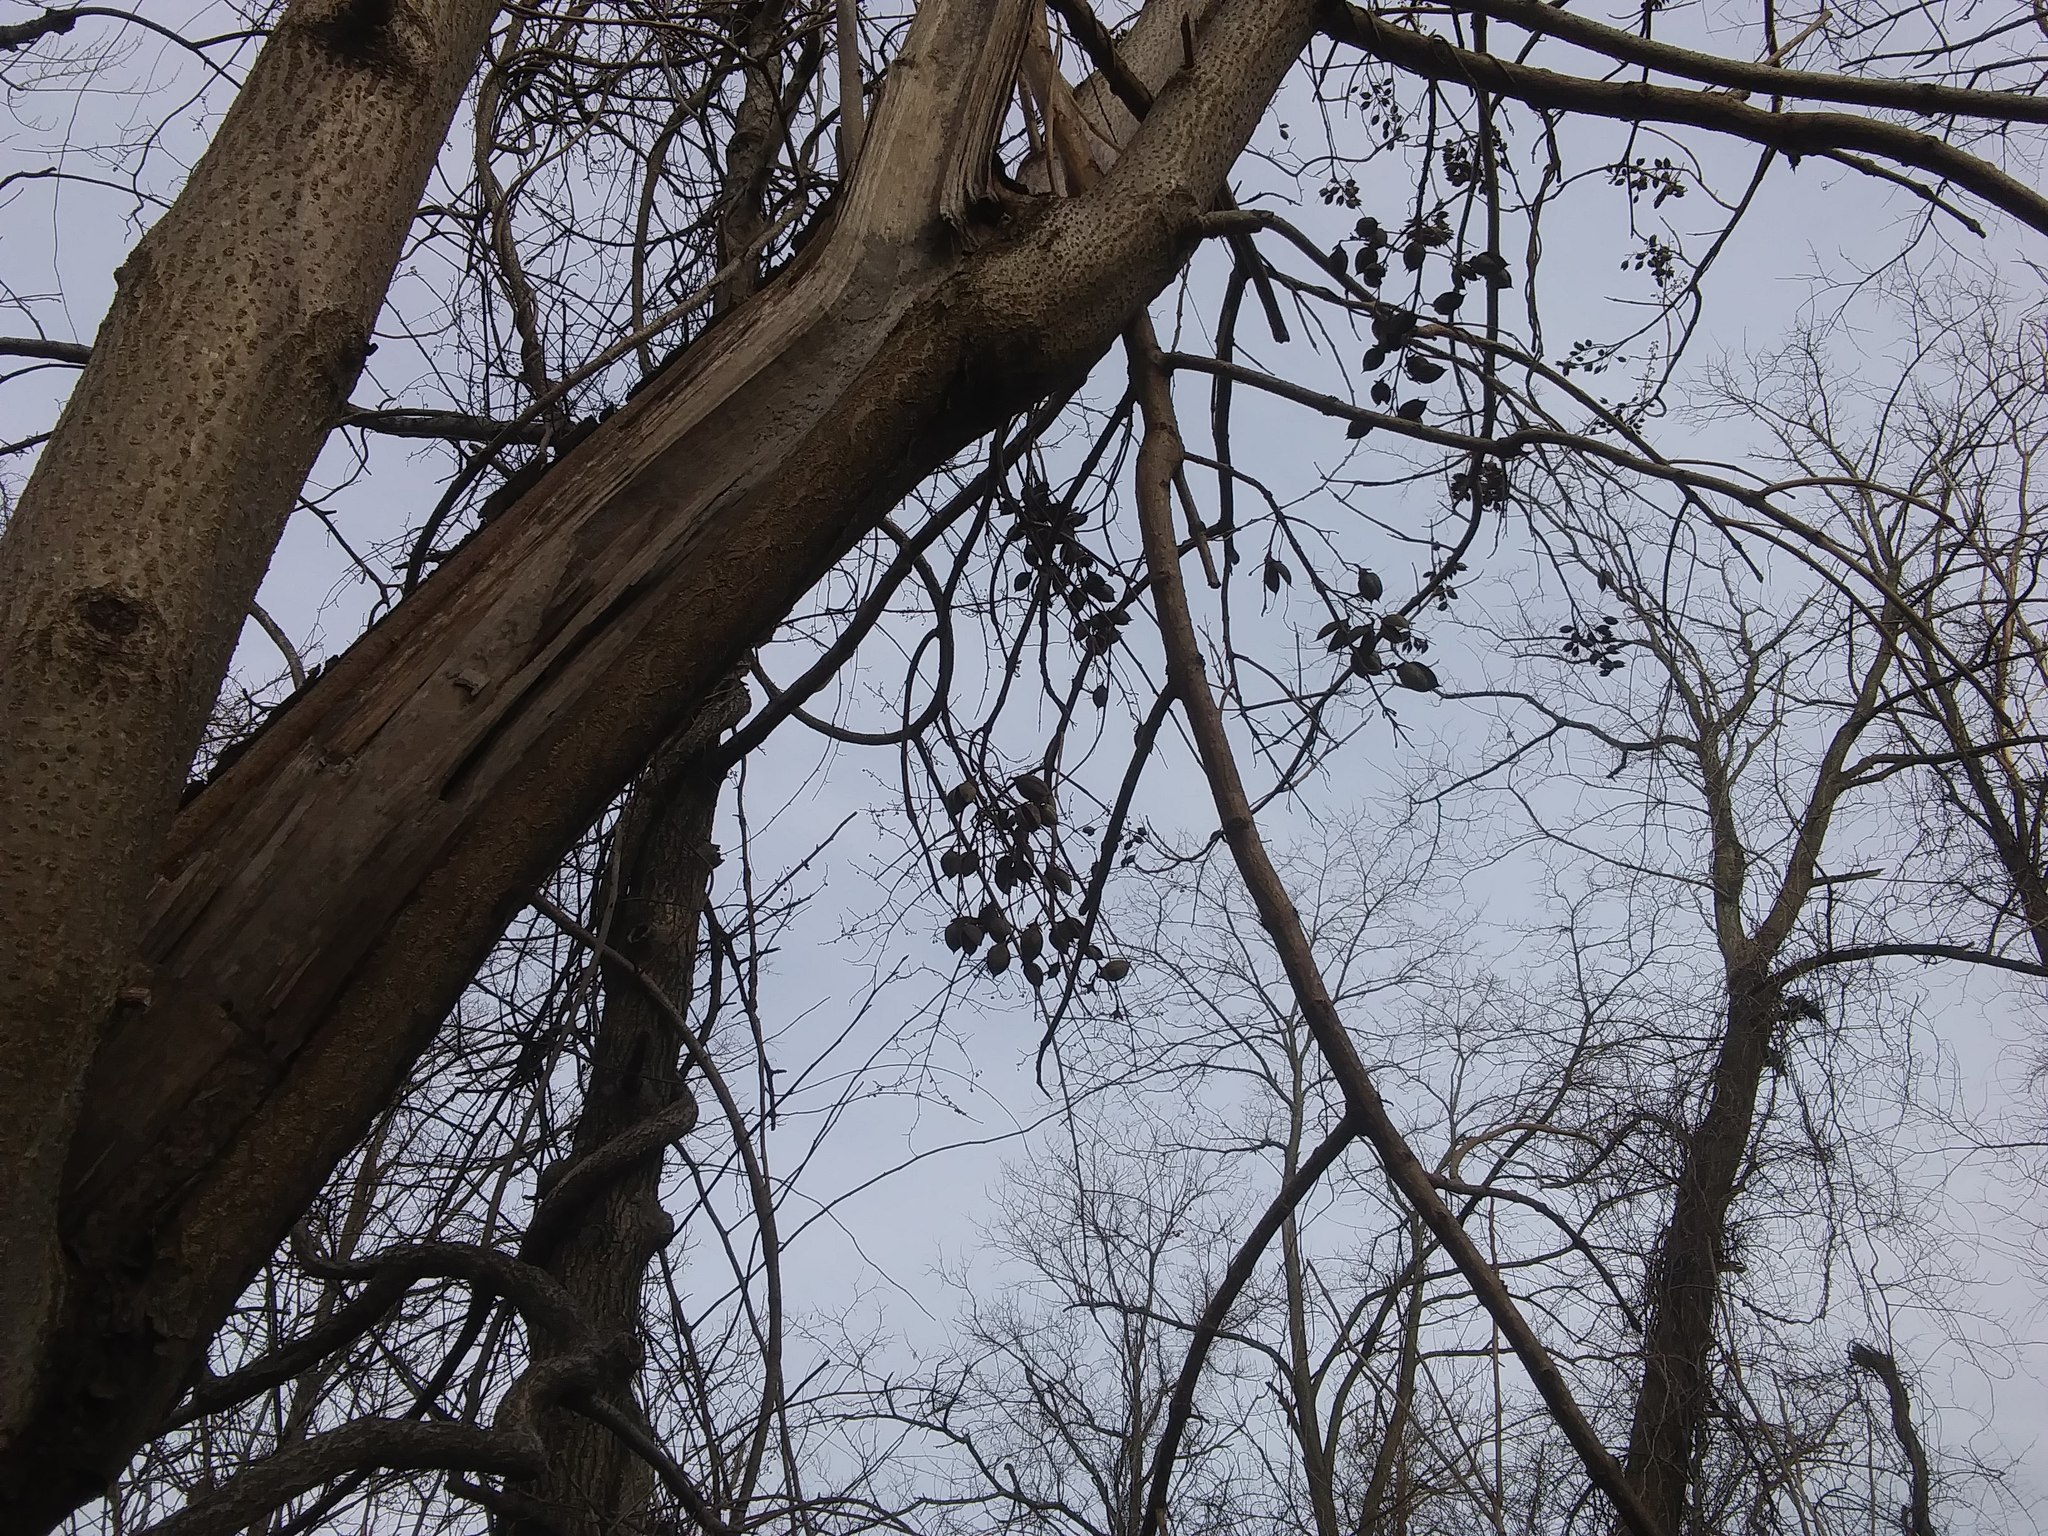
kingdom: Plantae
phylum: Tracheophyta
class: Magnoliopsida
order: Lamiales
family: Paulowniaceae
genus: Paulownia
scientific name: Paulownia tomentosa
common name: Foxglove-tree
